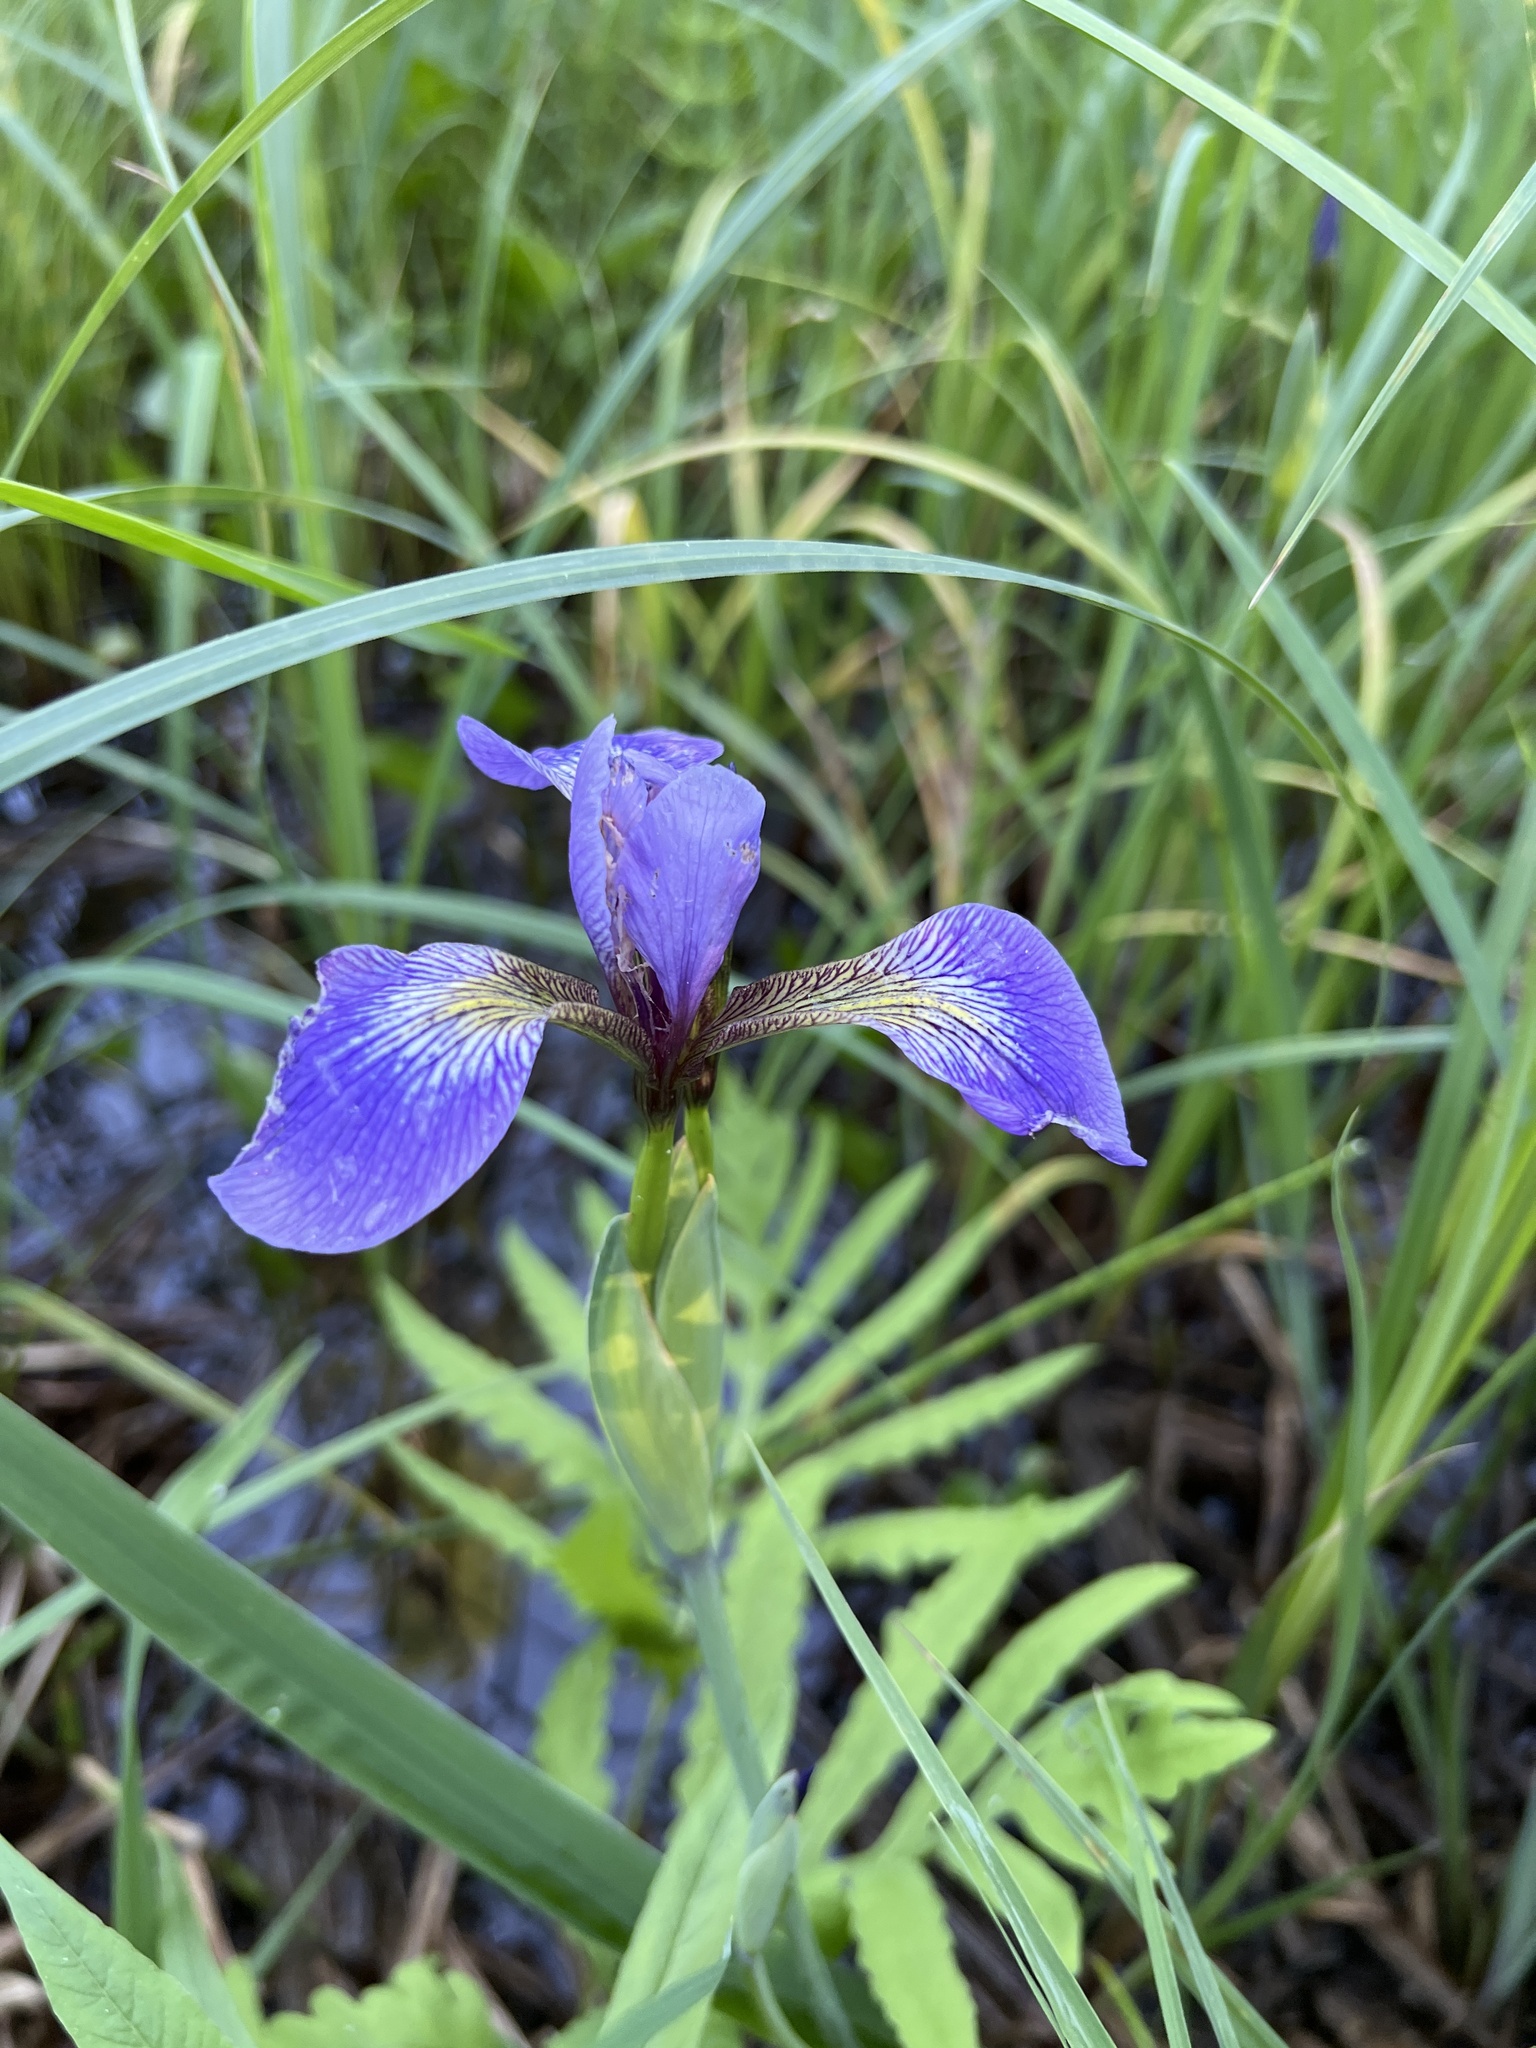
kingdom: Plantae
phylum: Tracheophyta
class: Liliopsida
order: Asparagales
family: Iridaceae
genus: Iris
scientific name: Iris versicolor
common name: Purple iris
